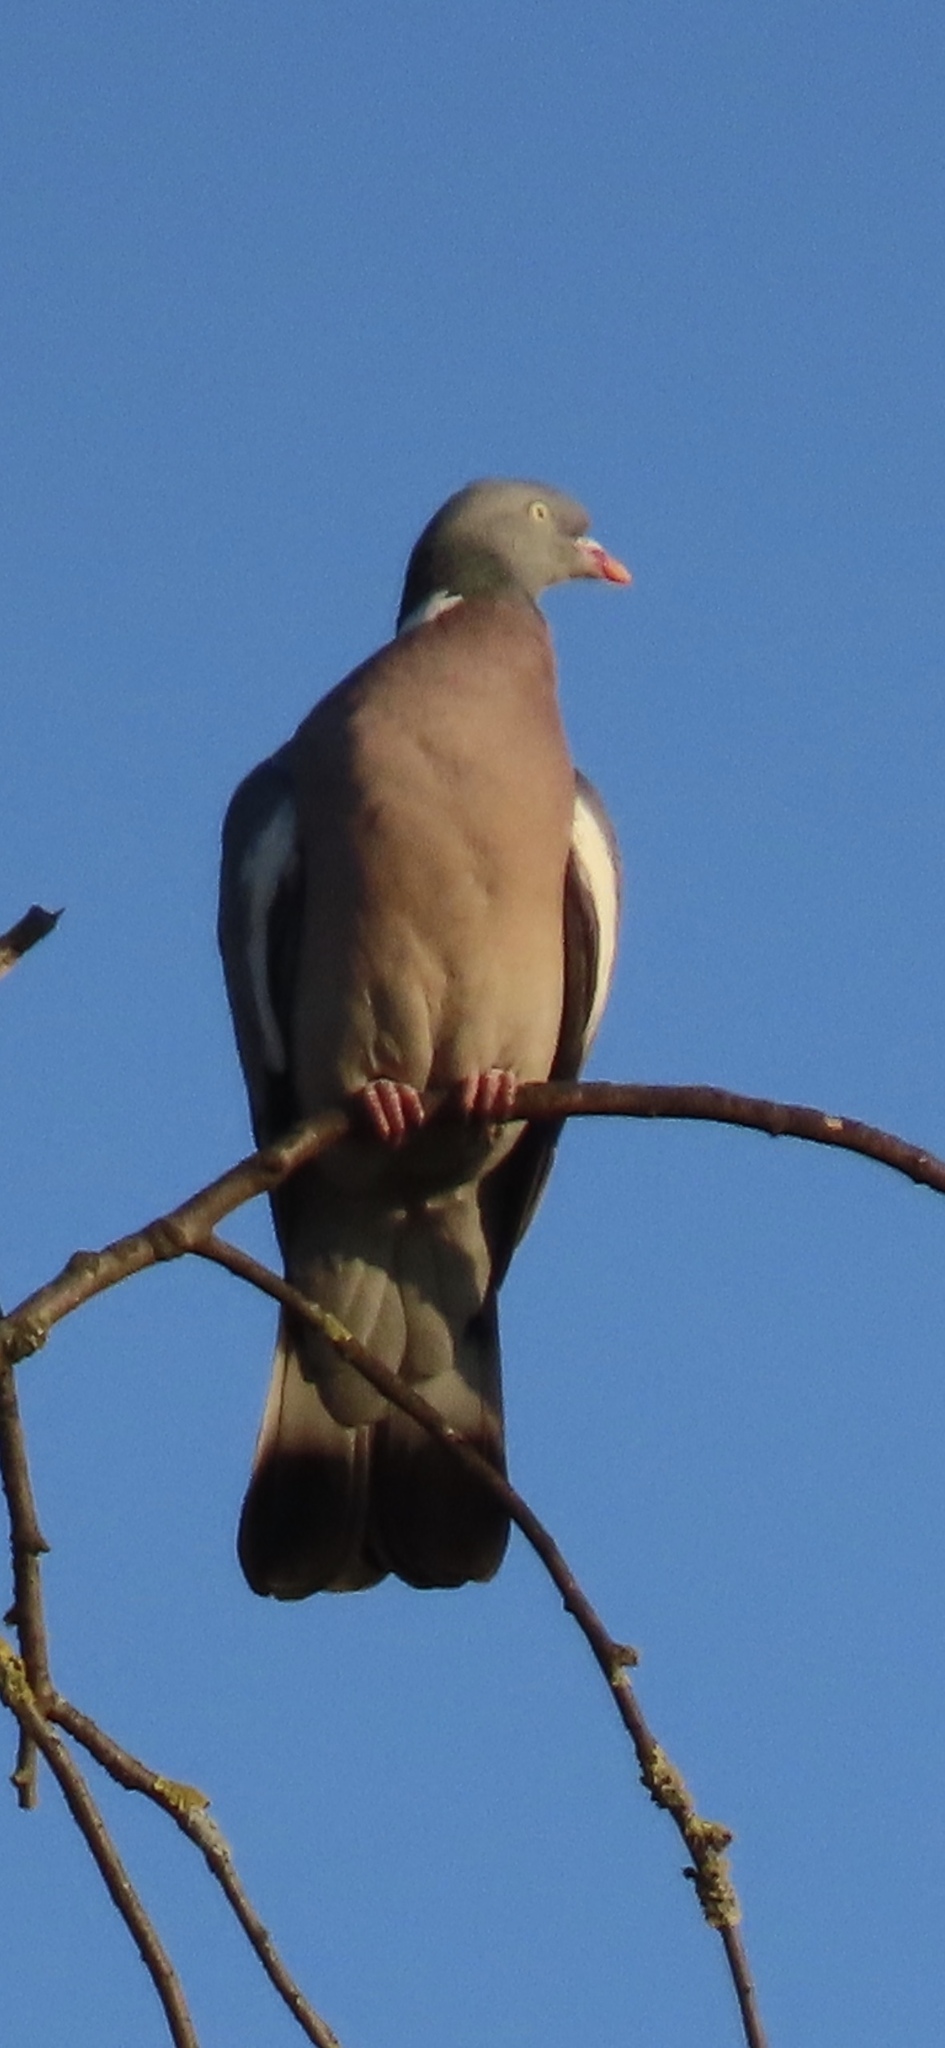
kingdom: Animalia
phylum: Chordata
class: Aves
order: Columbiformes
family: Columbidae
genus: Columba
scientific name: Columba palumbus
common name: Common wood pigeon
